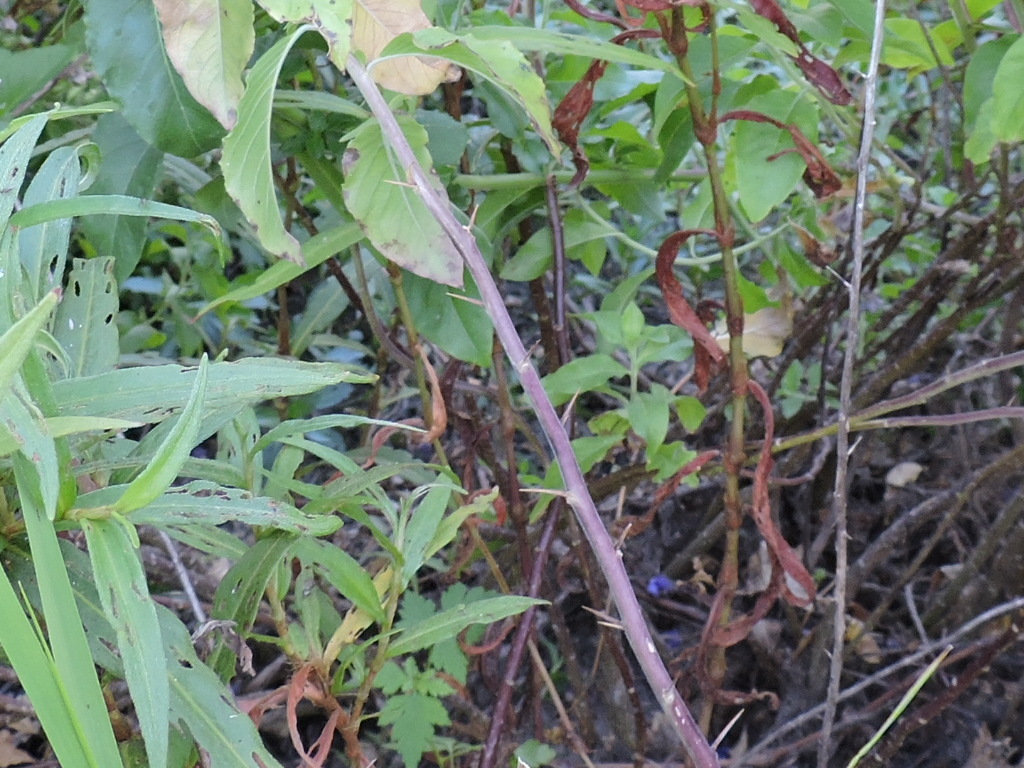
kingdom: Plantae
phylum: Tracheophyta
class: Magnoliopsida
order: Solanales
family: Hydroleaceae
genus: Hydrolea
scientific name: Hydrolea ovata
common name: Ovate false fiddleleaf
